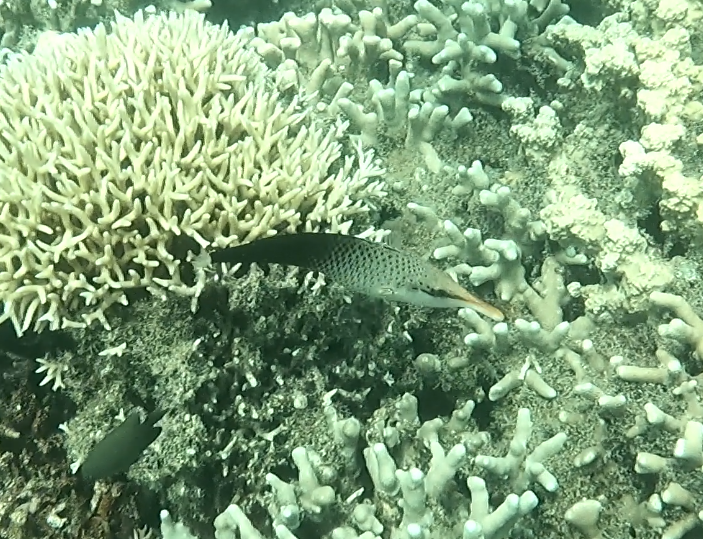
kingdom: Animalia
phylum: Chordata
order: Perciformes
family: Labridae
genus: Gomphosus
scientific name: Gomphosus varius
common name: Bird wrasse
